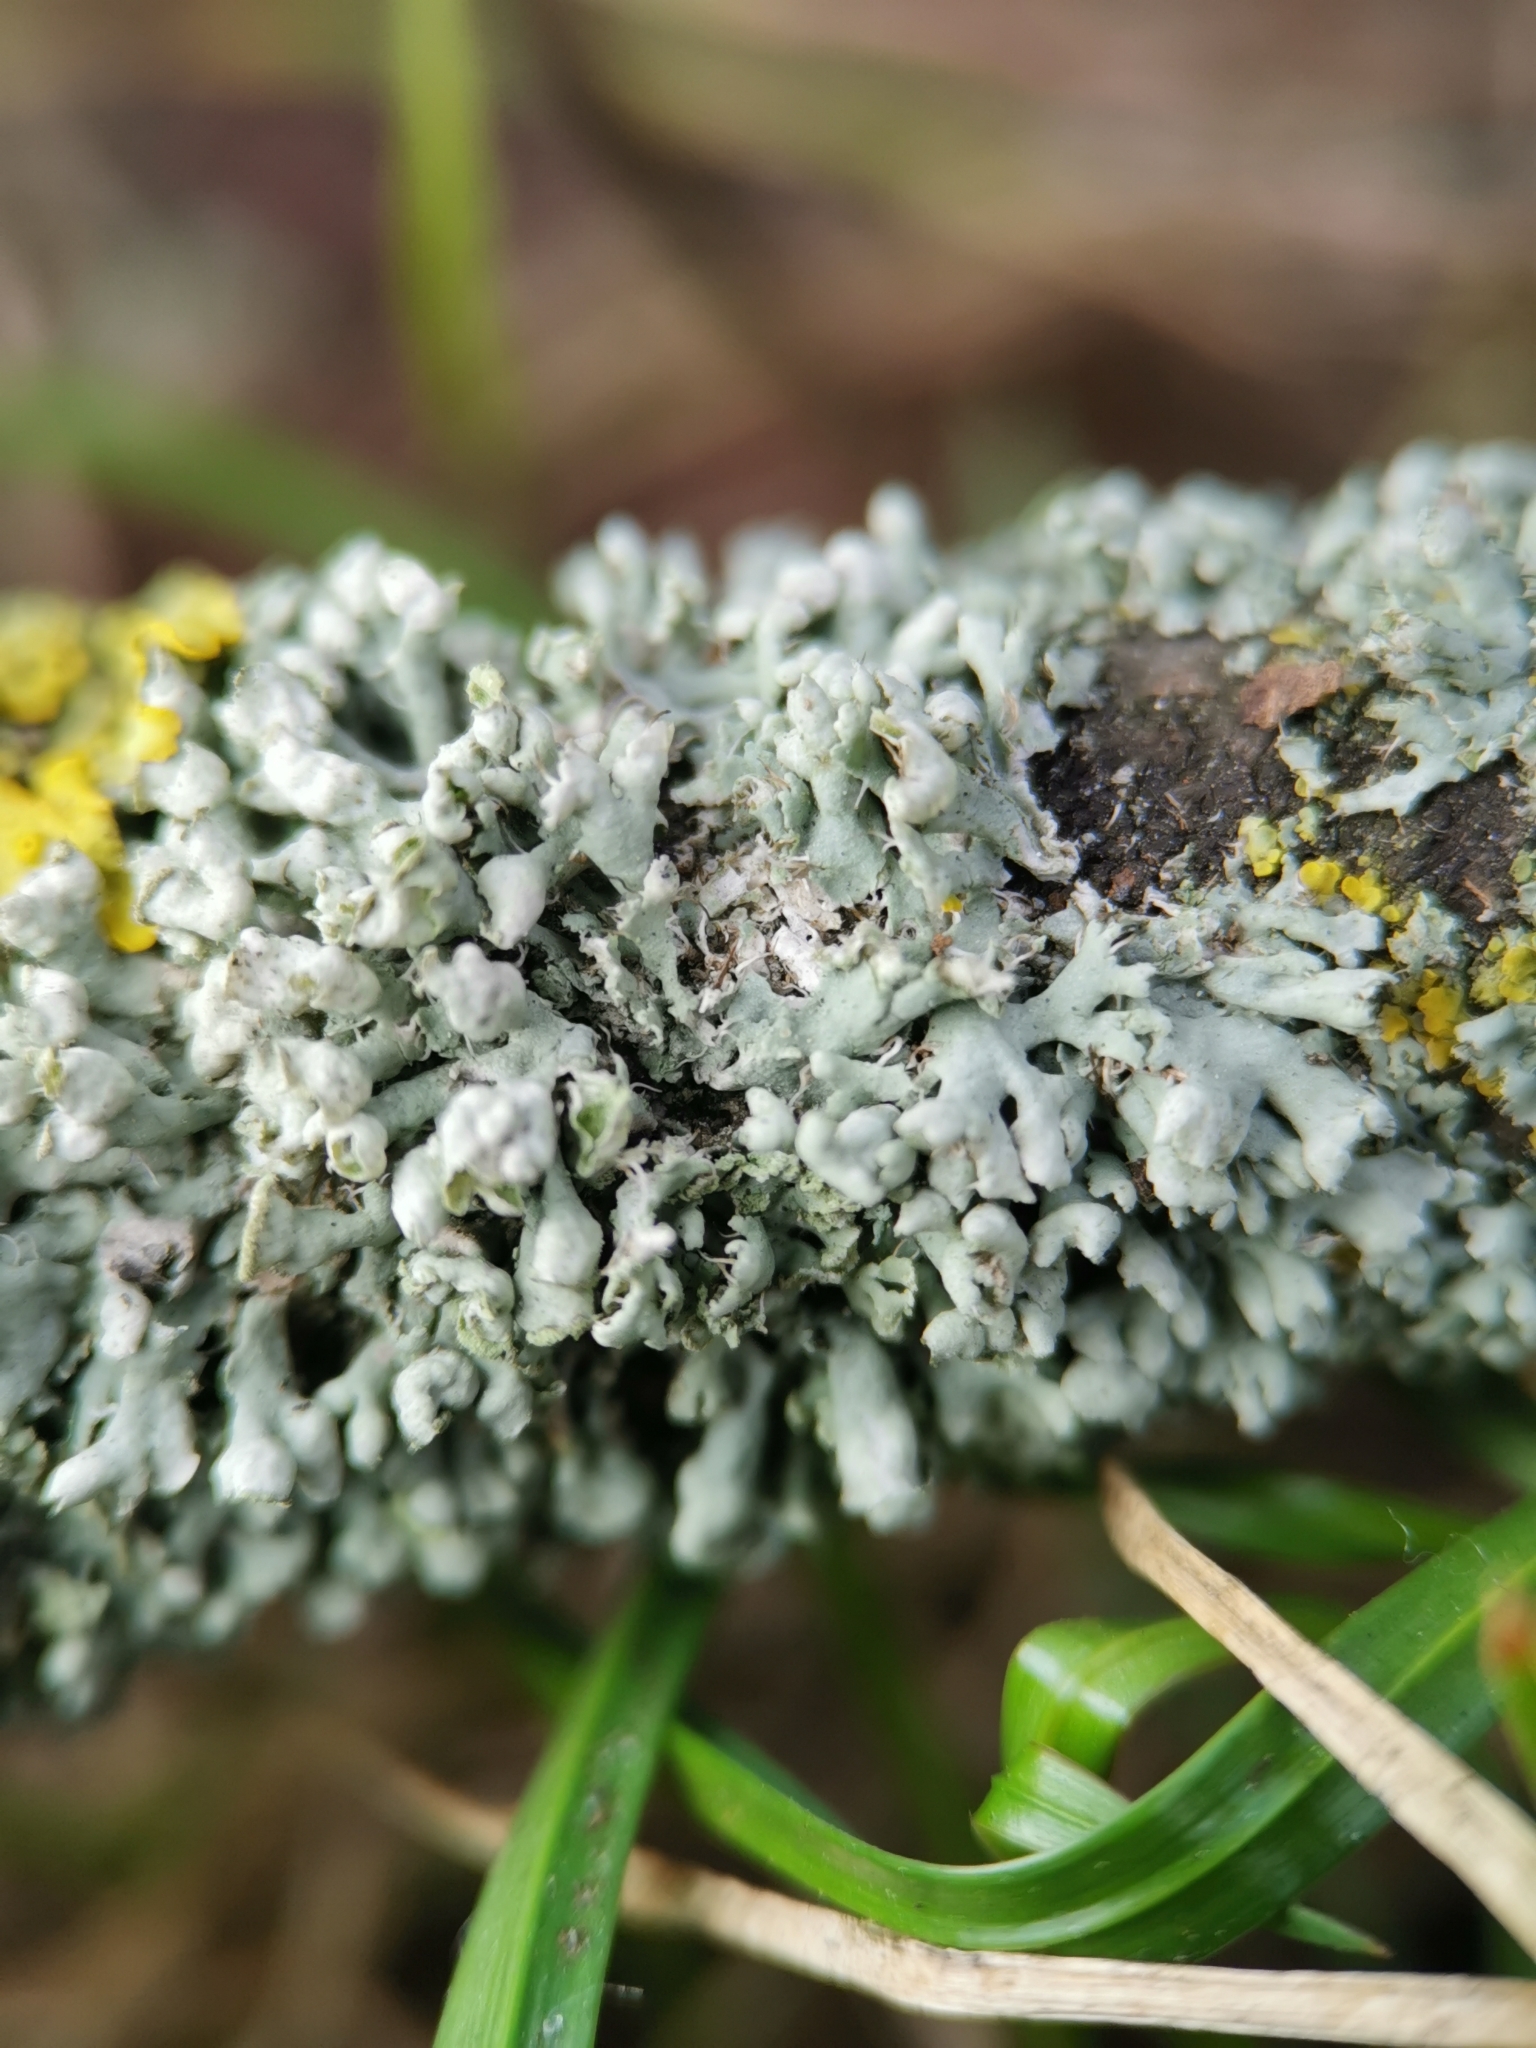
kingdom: Fungi
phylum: Ascomycota
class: Lecanoromycetes
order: Caliciales
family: Physciaceae
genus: Physcia
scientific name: Physcia adscendens
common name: Hooded rosette lichen
